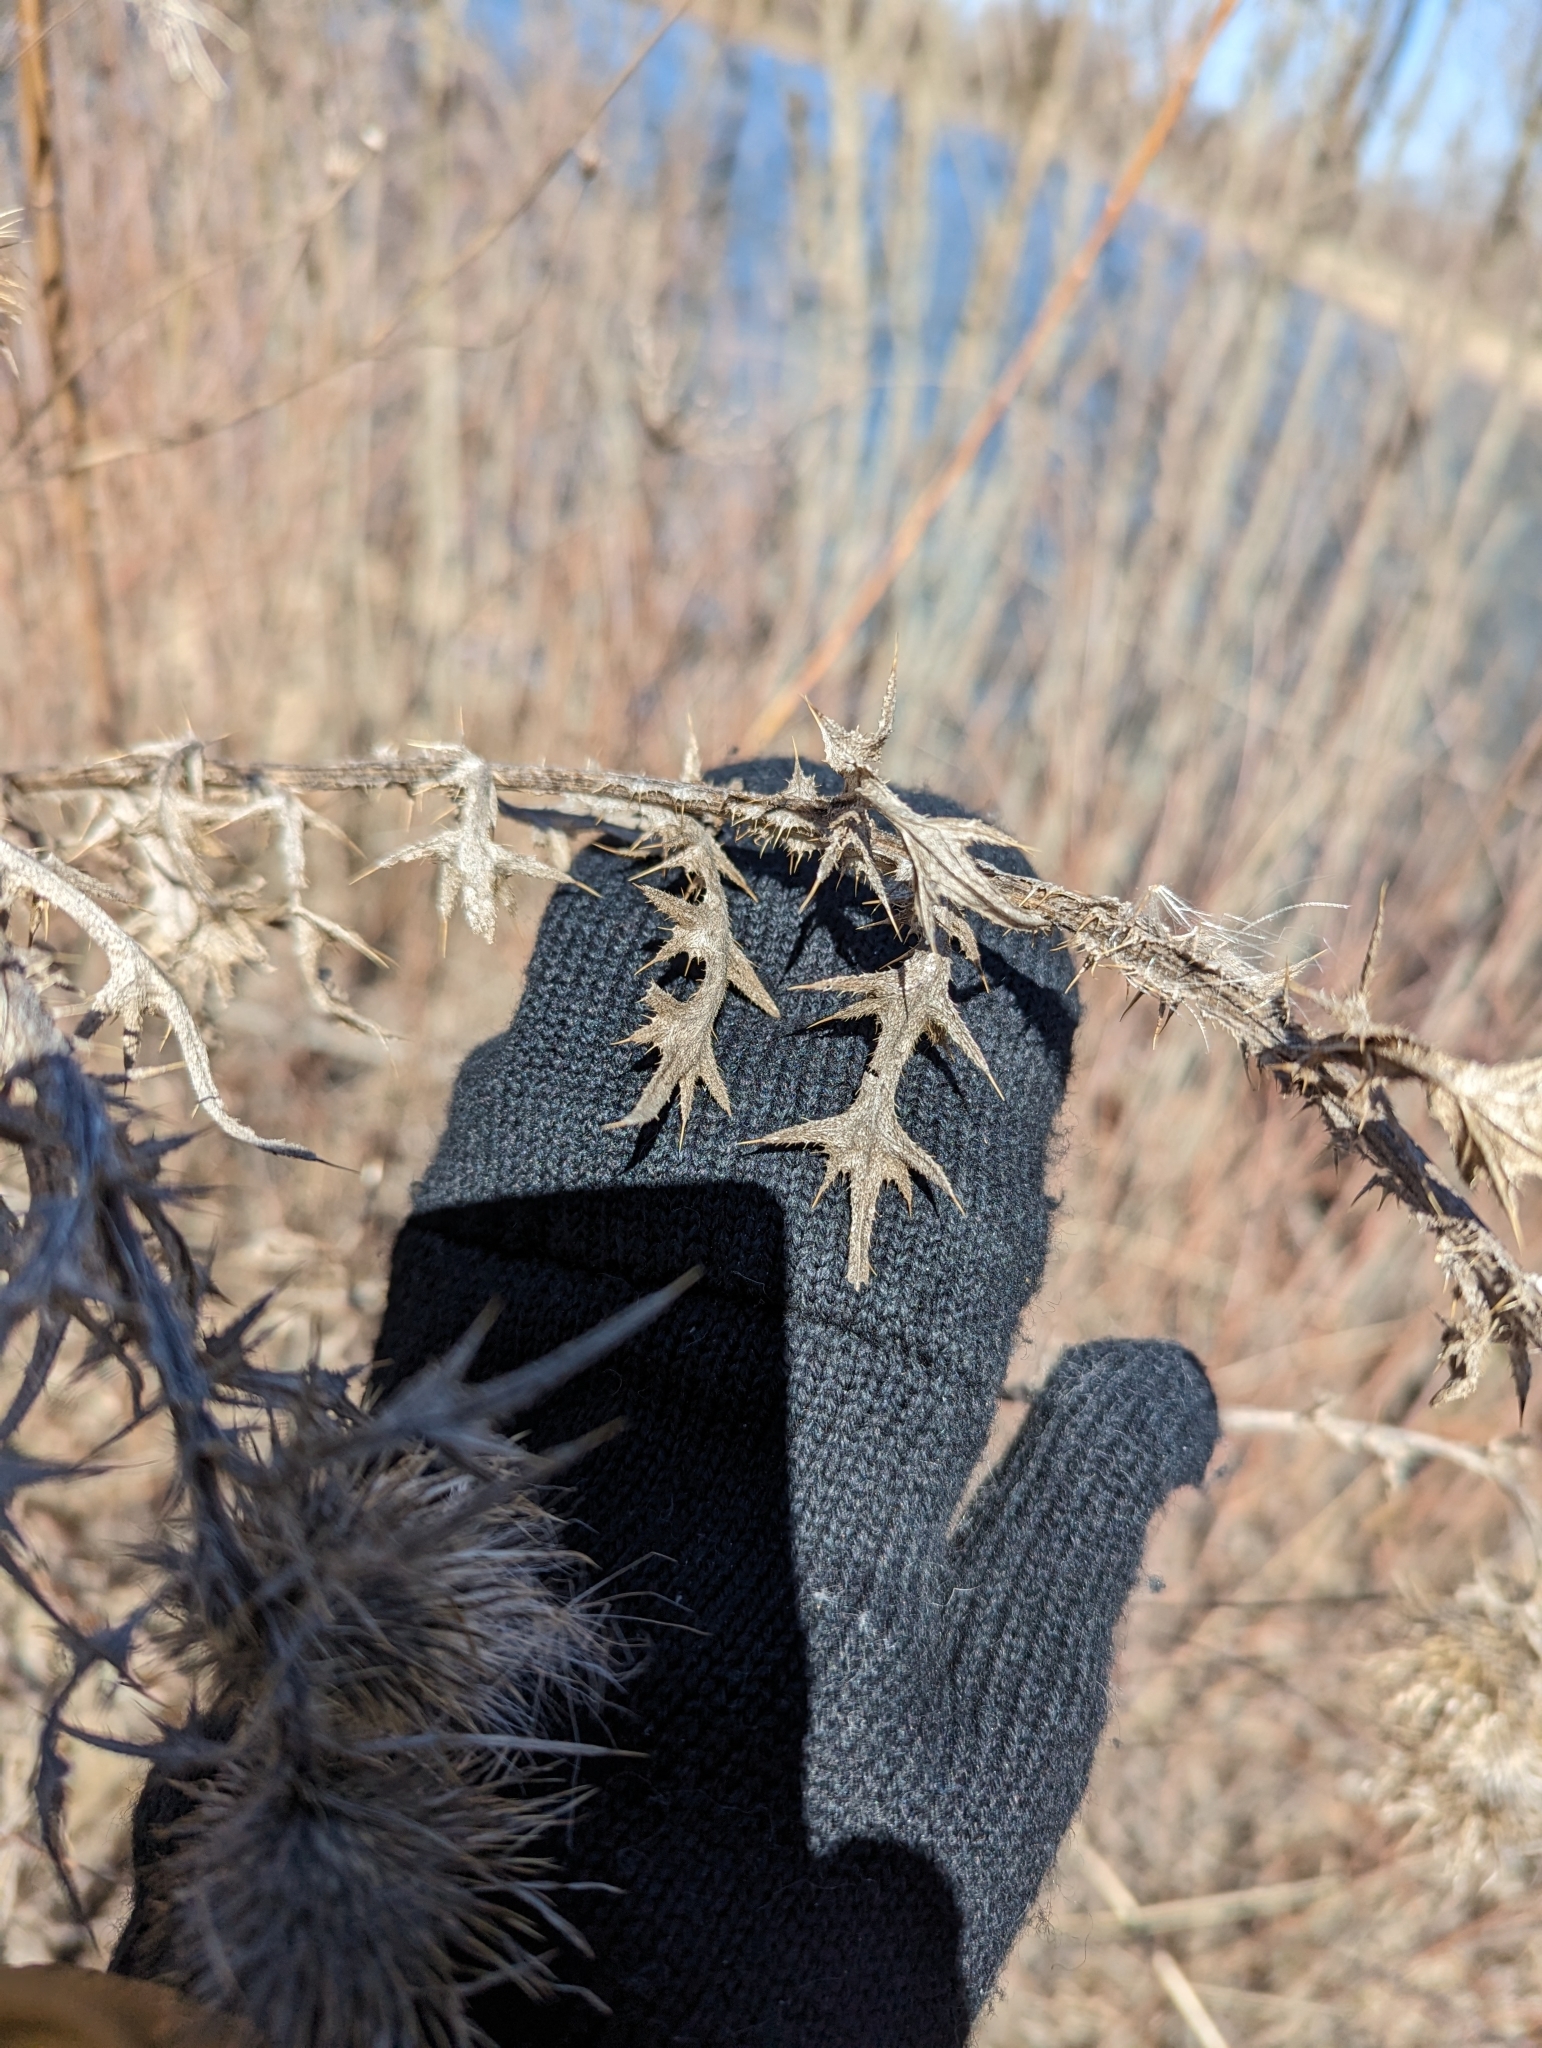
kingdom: Plantae
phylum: Tracheophyta
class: Magnoliopsida
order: Asterales
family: Asteraceae
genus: Cirsium
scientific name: Cirsium vulgare
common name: Bull thistle
